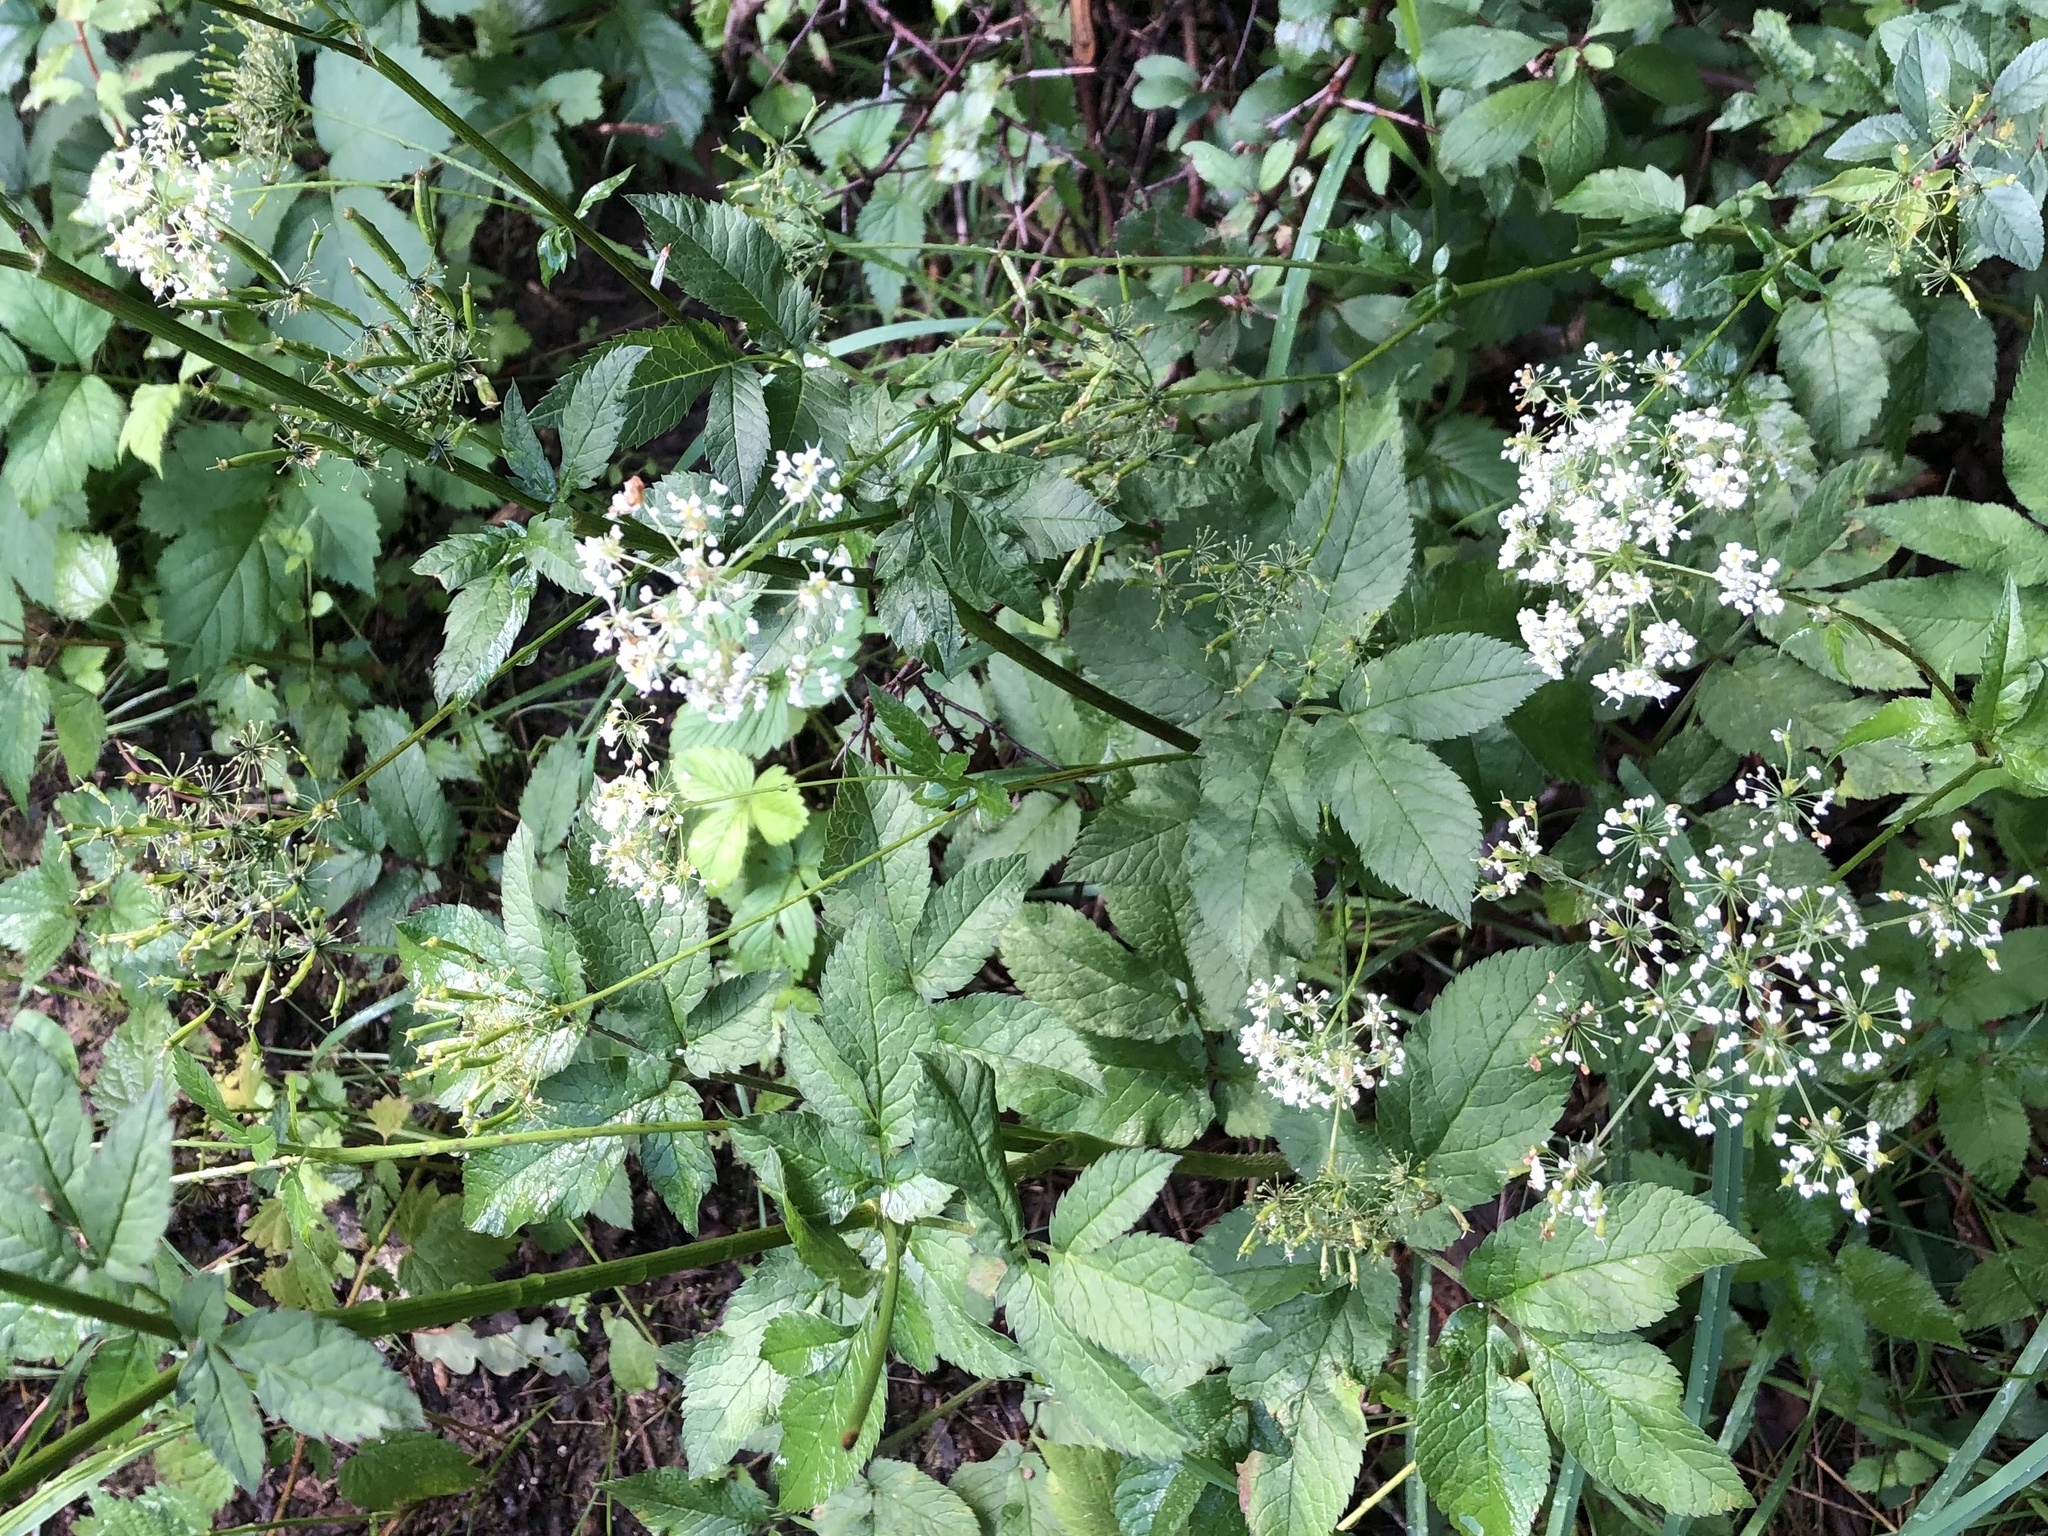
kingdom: Plantae
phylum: Tracheophyta
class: Magnoliopsida
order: Apiales
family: Apiaceae
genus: Chaerophyllum
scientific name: Chaerophyllum aromaticum
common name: Broadleaf chervil
